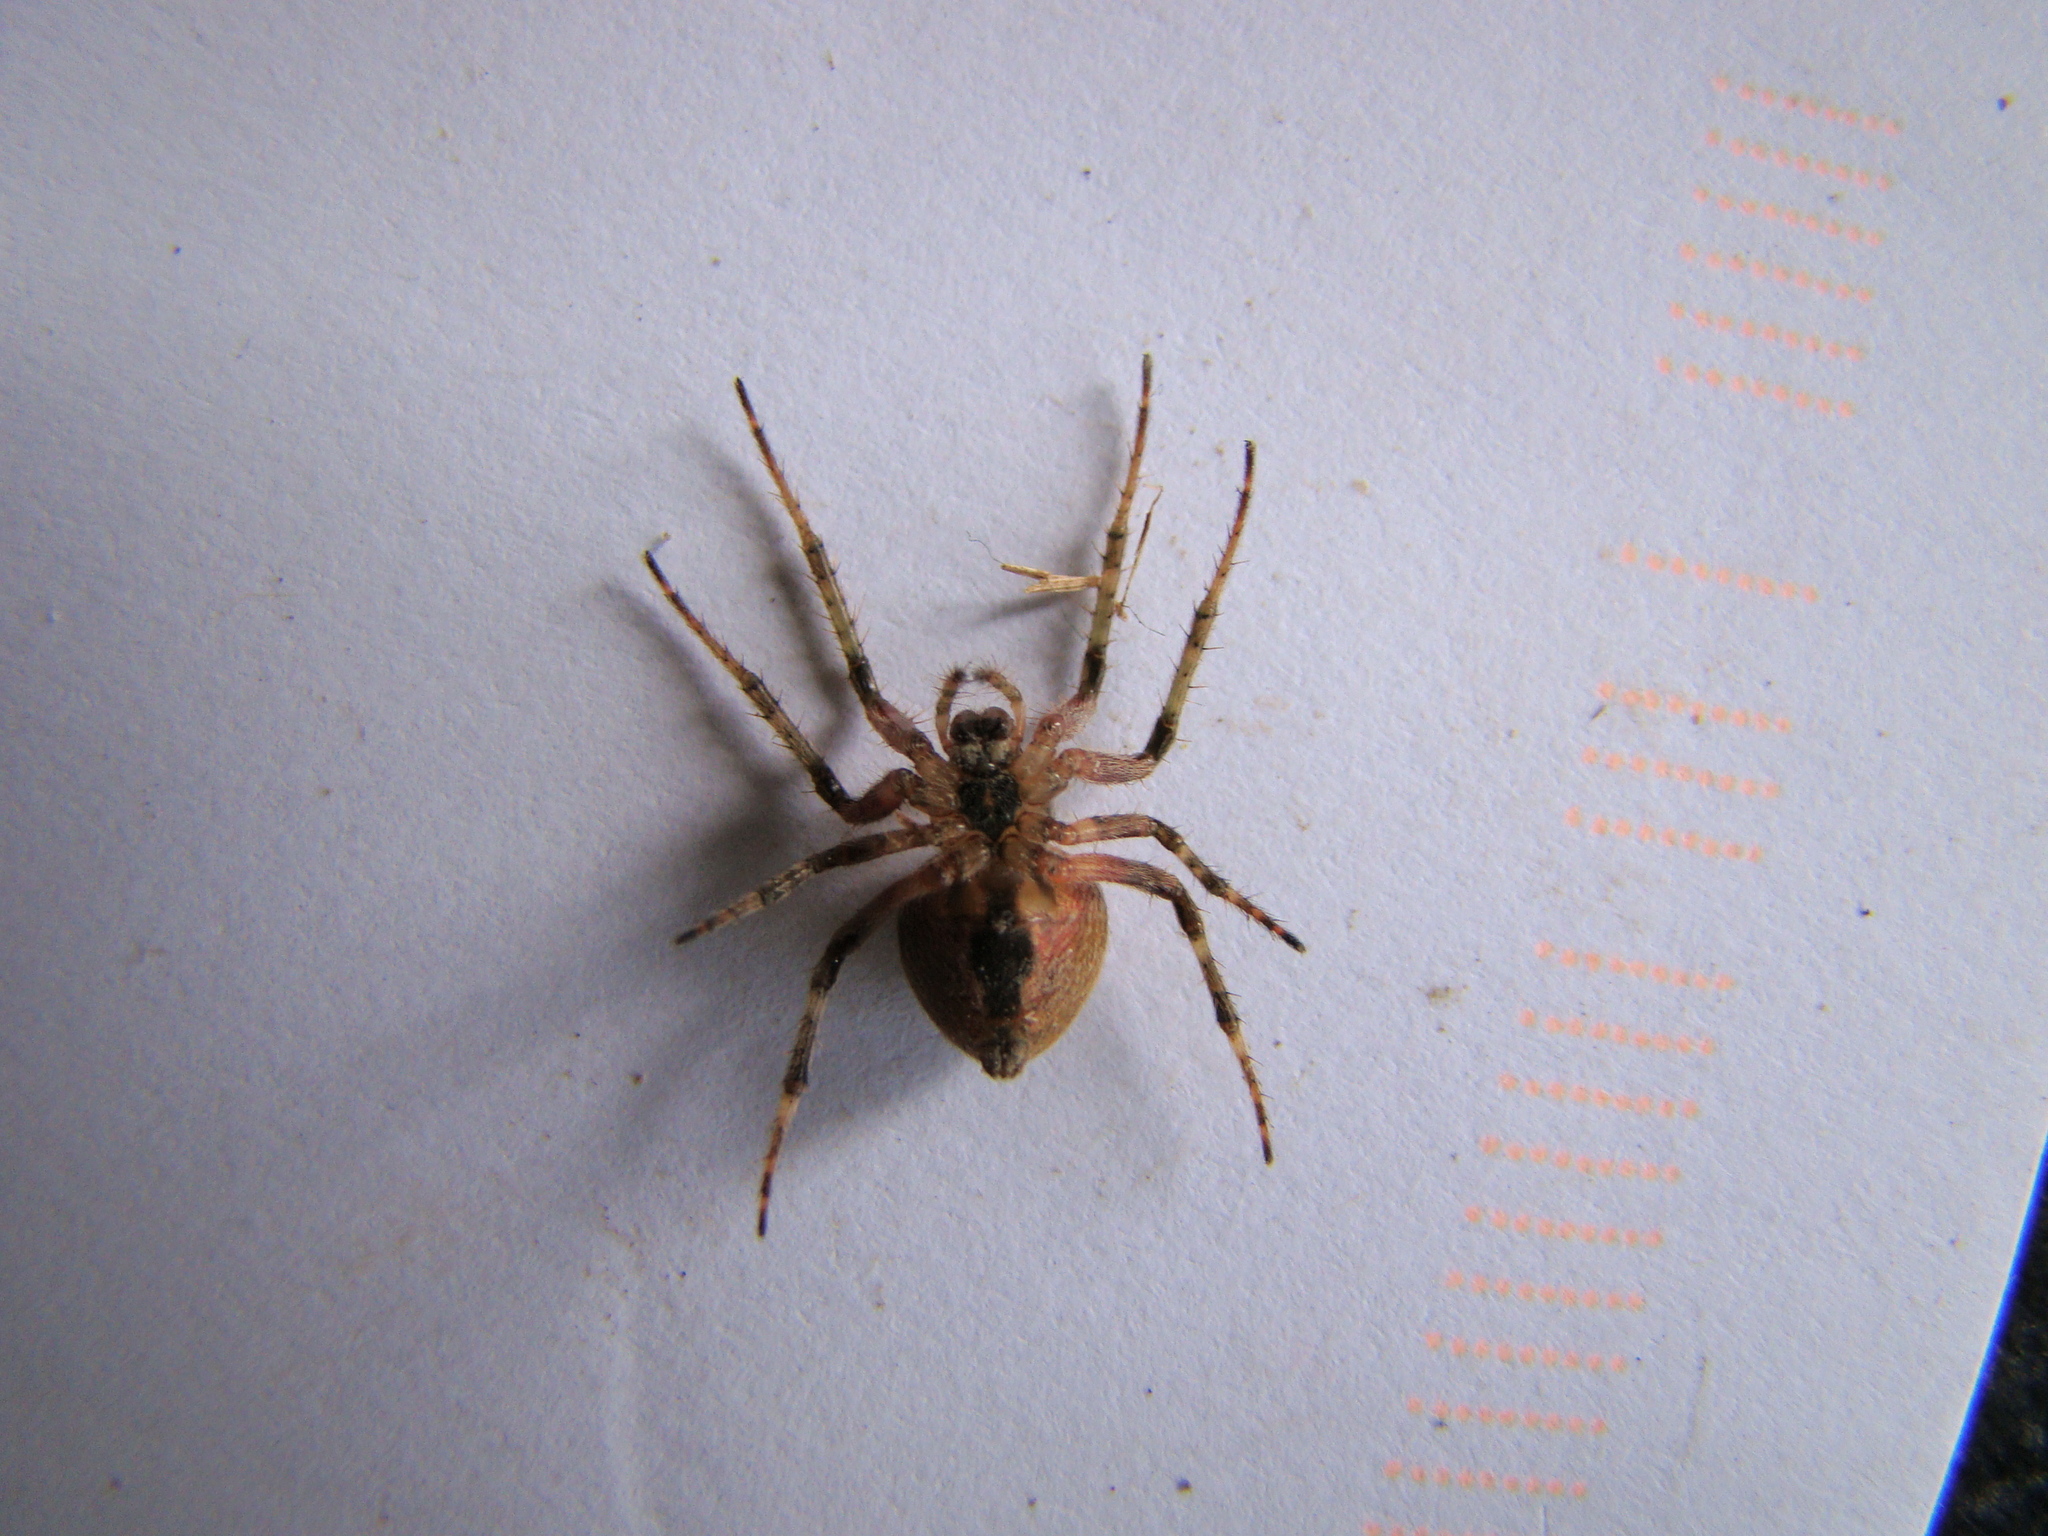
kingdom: Animalia
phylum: Arthropoda
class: Arachnida
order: Araneae
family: Araneidae
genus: Zealaranea
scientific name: Zealaranea crassa
